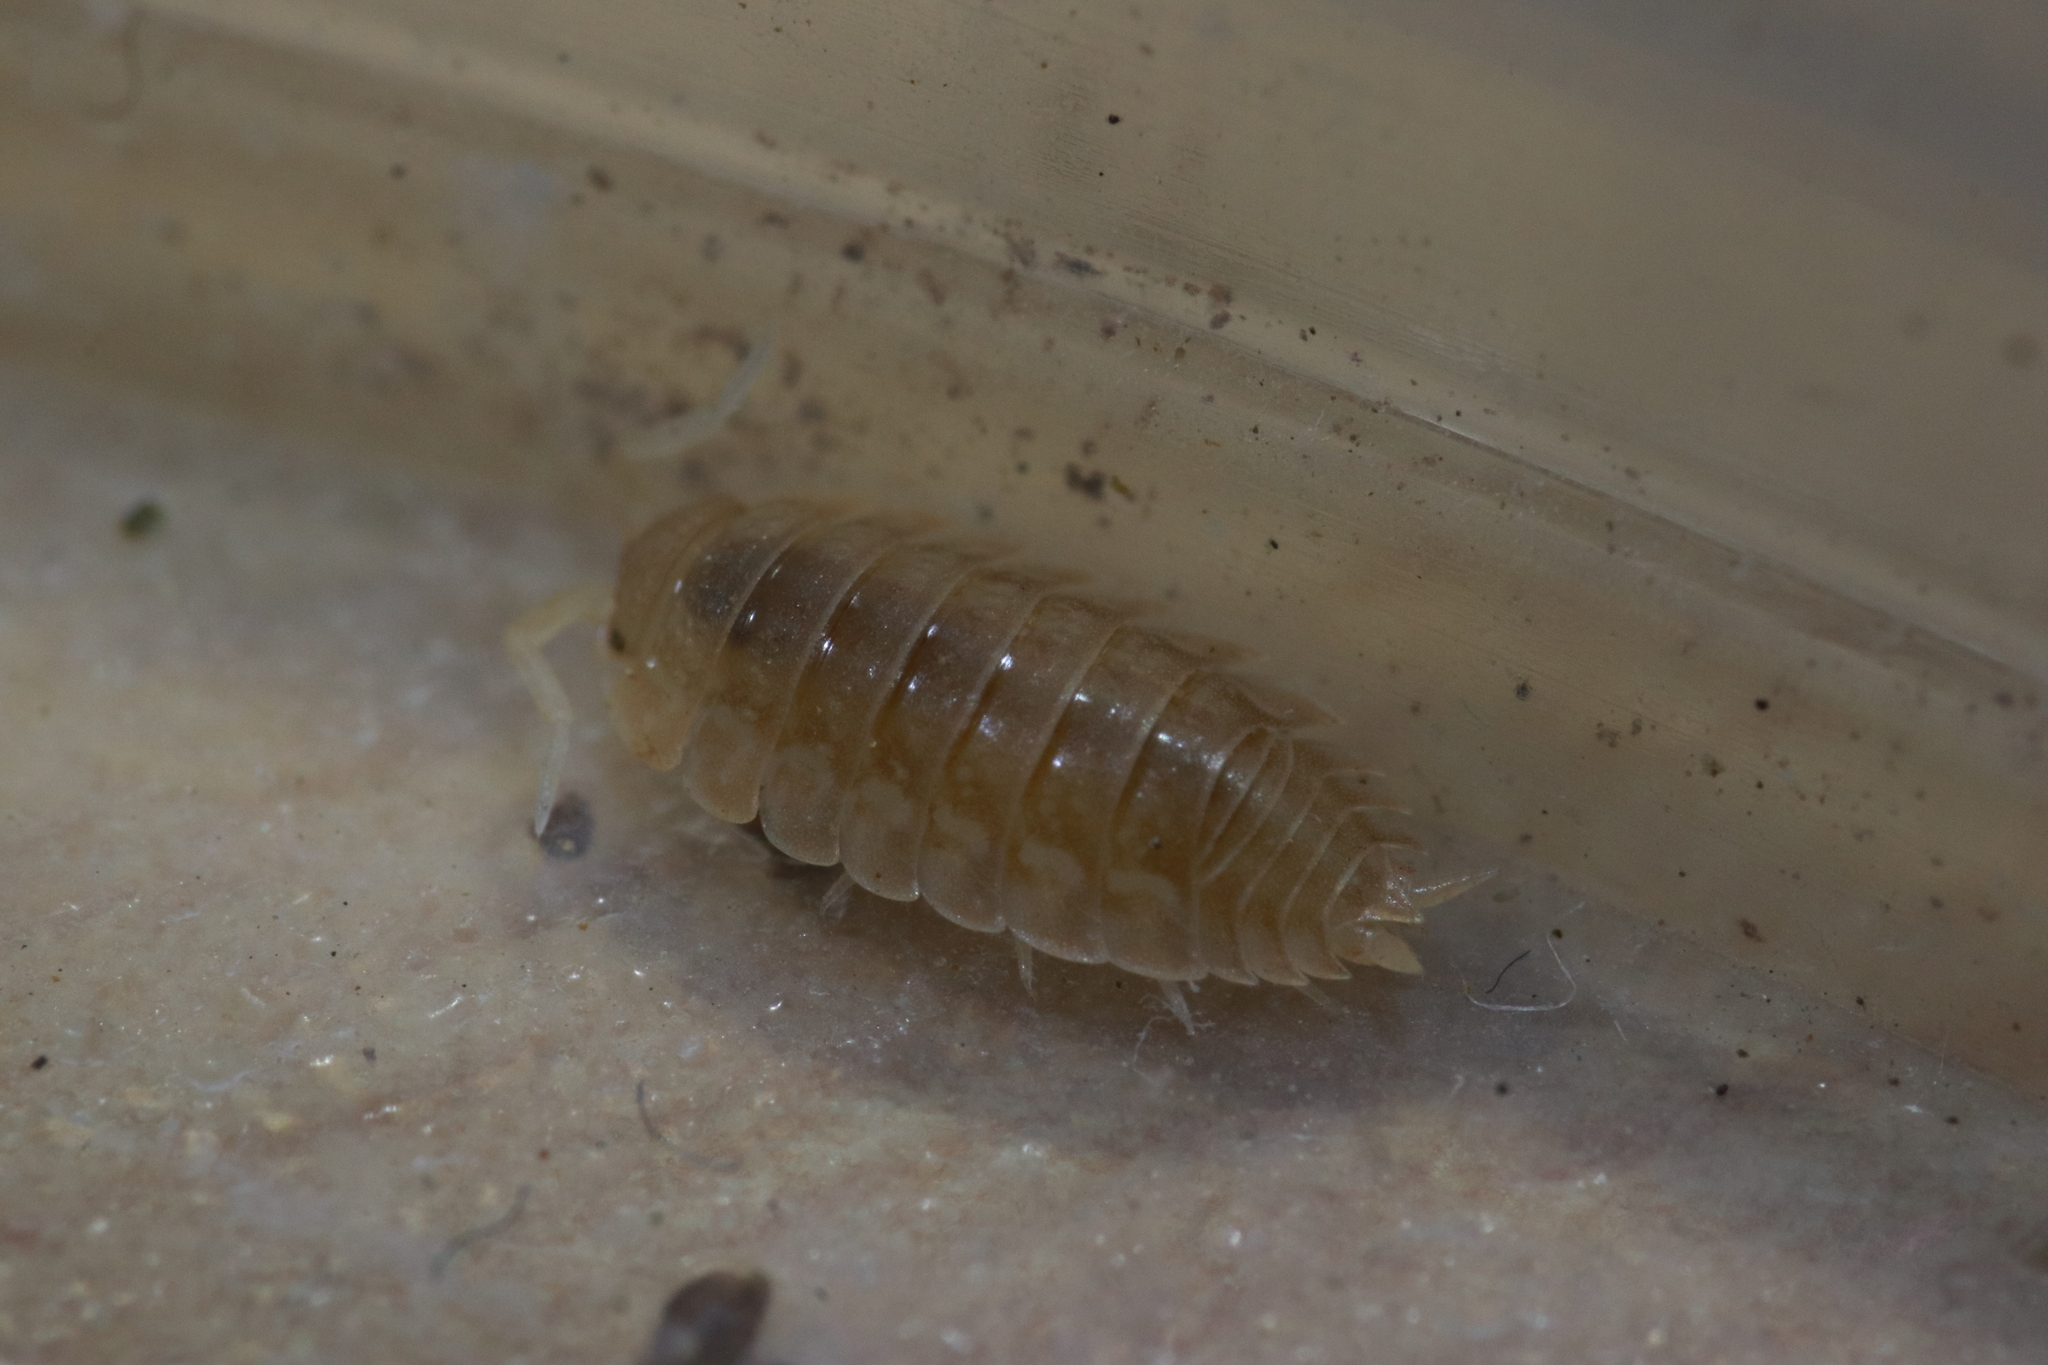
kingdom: Animalia
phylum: Arthropoda
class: Malacostraca
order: Isopoda
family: Porcellionidae
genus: Lucasius
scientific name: Lucasius pallidus
